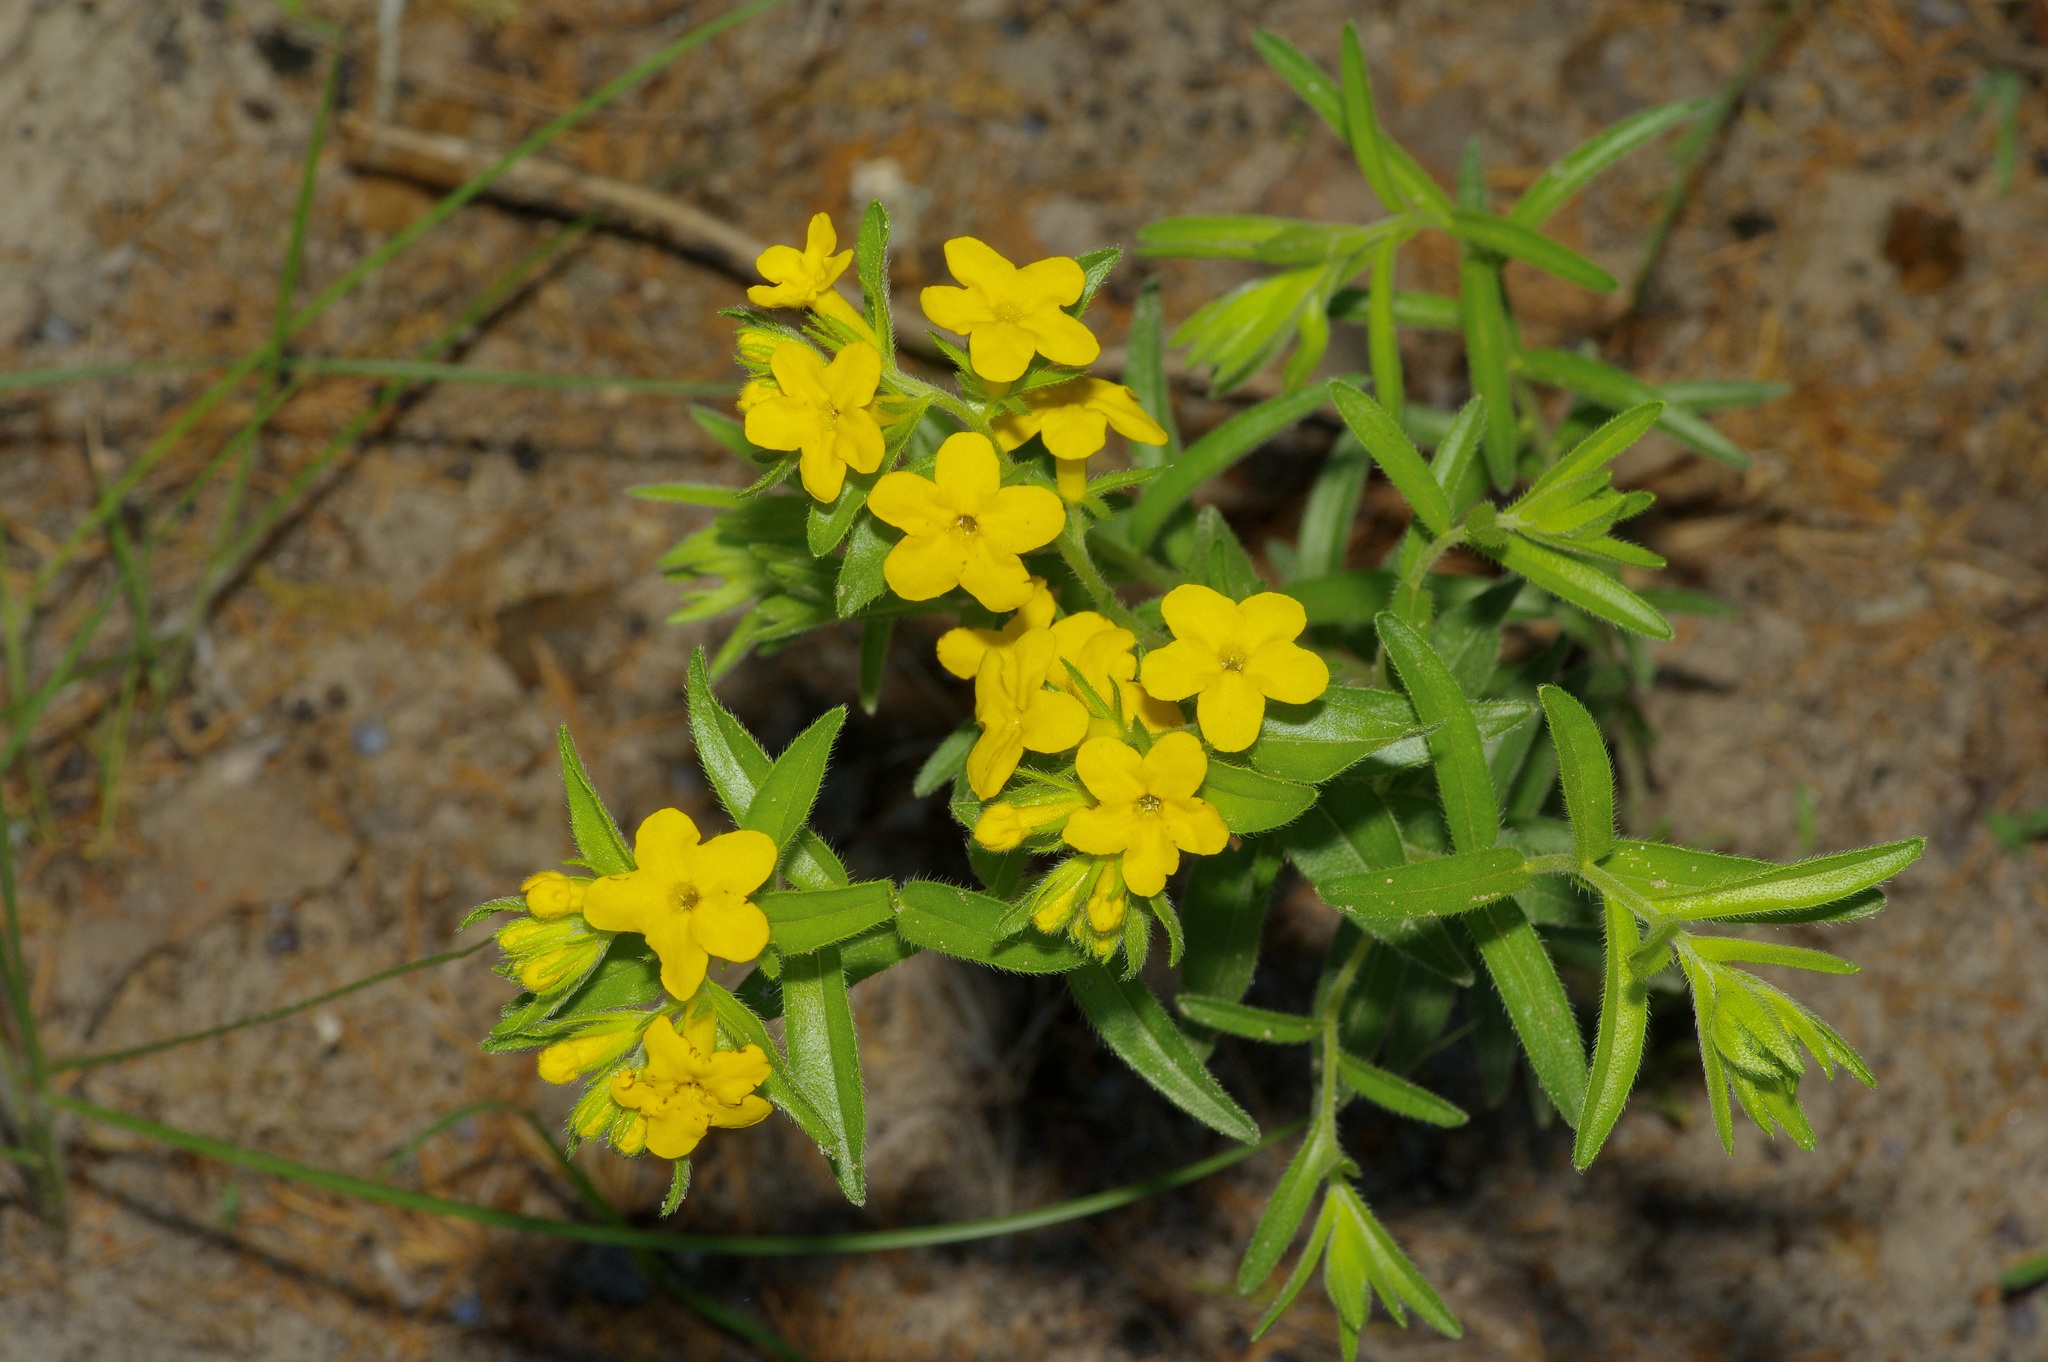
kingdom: Plantae
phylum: Tracheophyta
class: Magnoliopsida
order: Boraginales
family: Boraginaceae
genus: Lithospermum
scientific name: Lithospermum caroliniense
